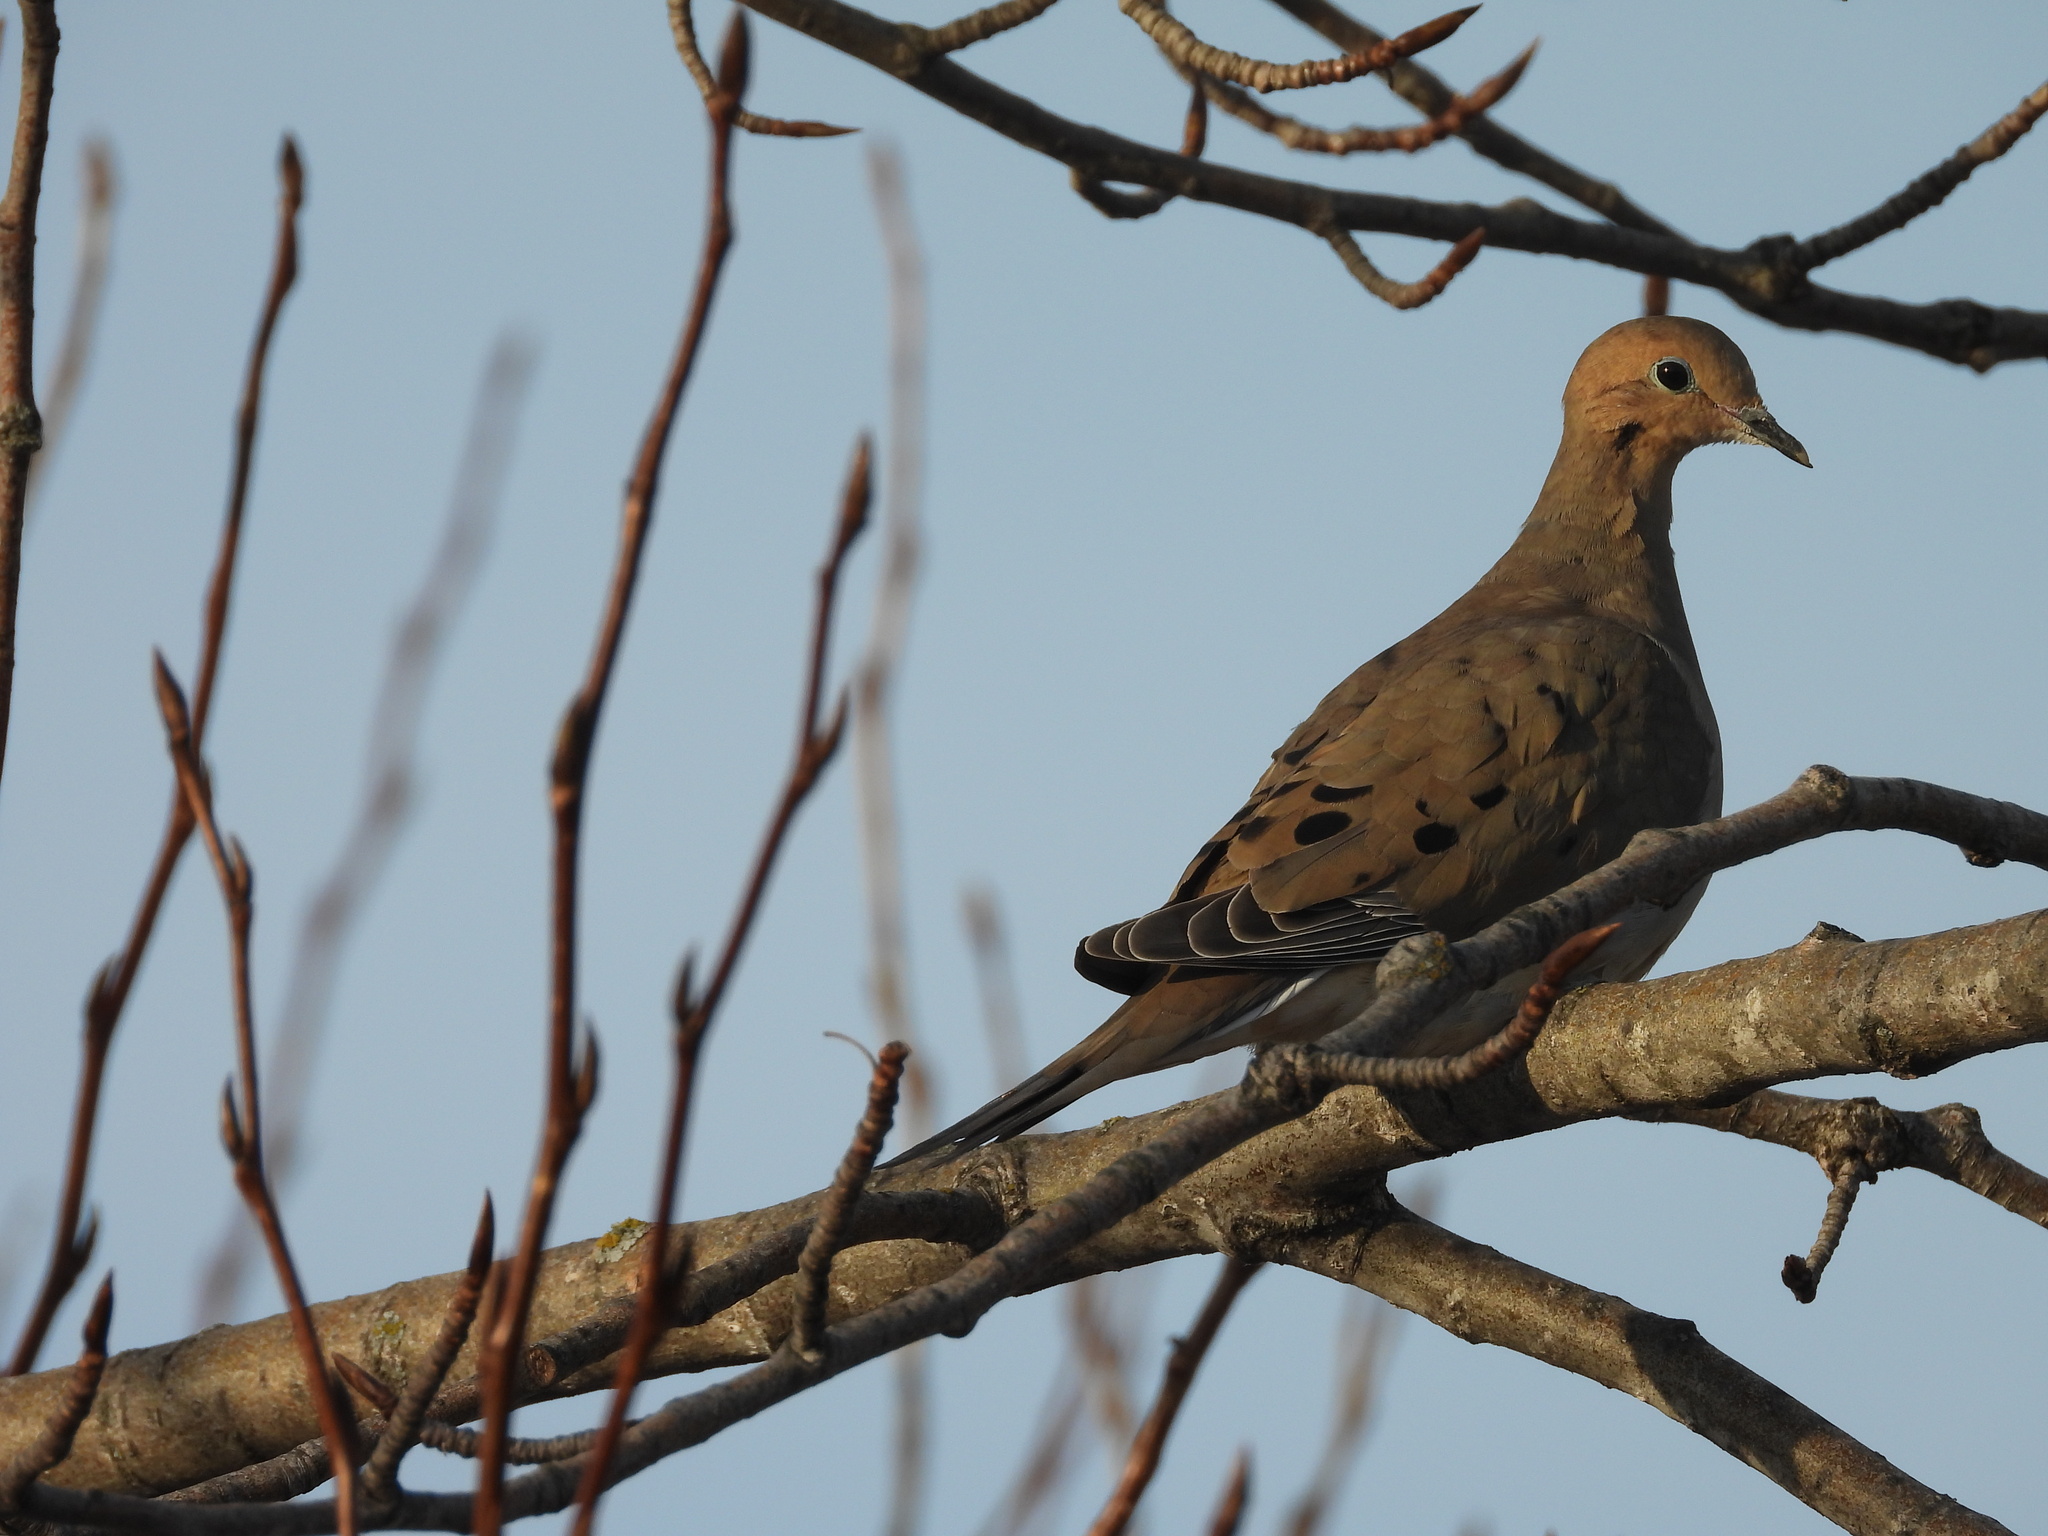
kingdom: Animalia
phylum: Chordata
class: Aves
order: Columbiformes
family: Columbidae
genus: Zenaida
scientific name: Zenaida macroura
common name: Mourning dove
